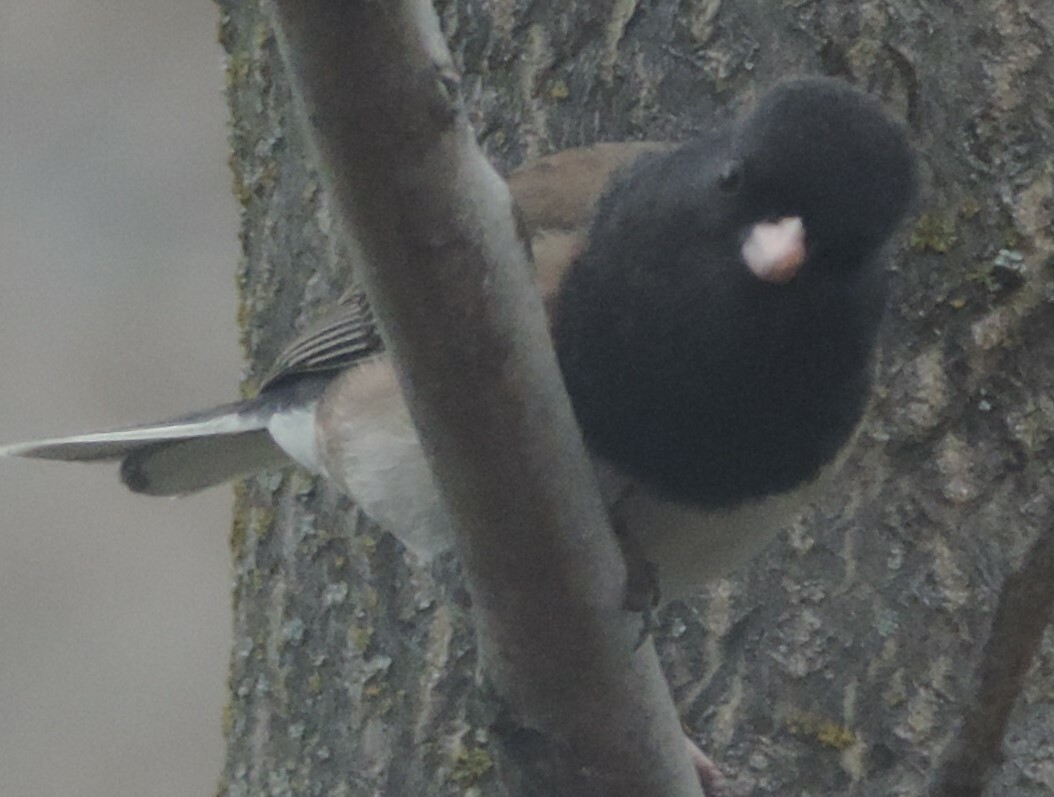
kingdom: Animalia
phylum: Chordata
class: Aves
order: Passeriformes
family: Passerellidae
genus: Junco
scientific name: Junco hyemalis
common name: Dark-eyed junco
